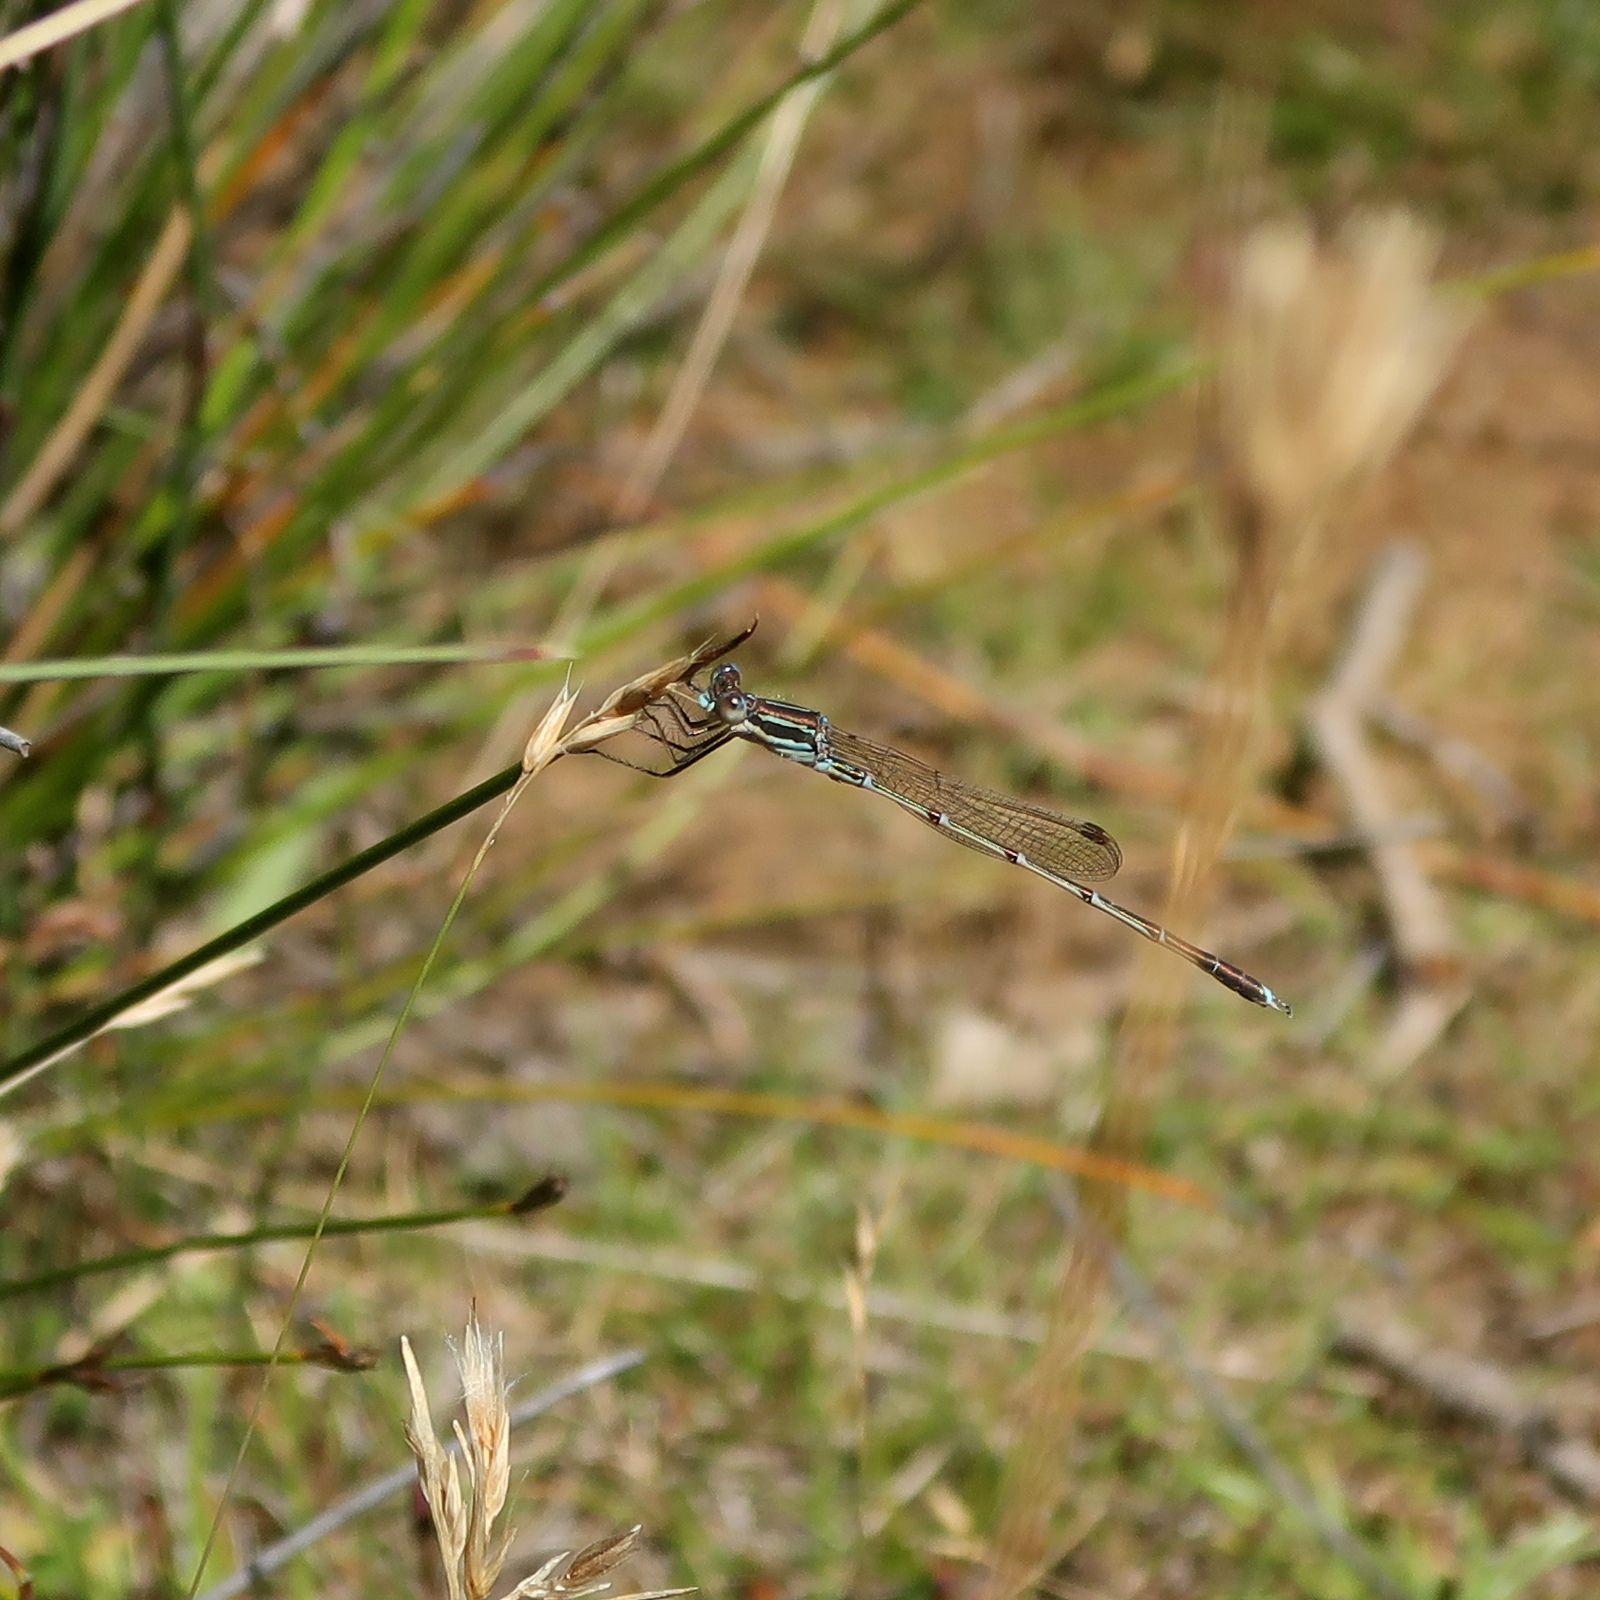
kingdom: Animalia
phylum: Arthropoda
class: Insecta
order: Odonata
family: Lestidae
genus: Austrolestes
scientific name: Austrolestes analis
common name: Slender ringtail
